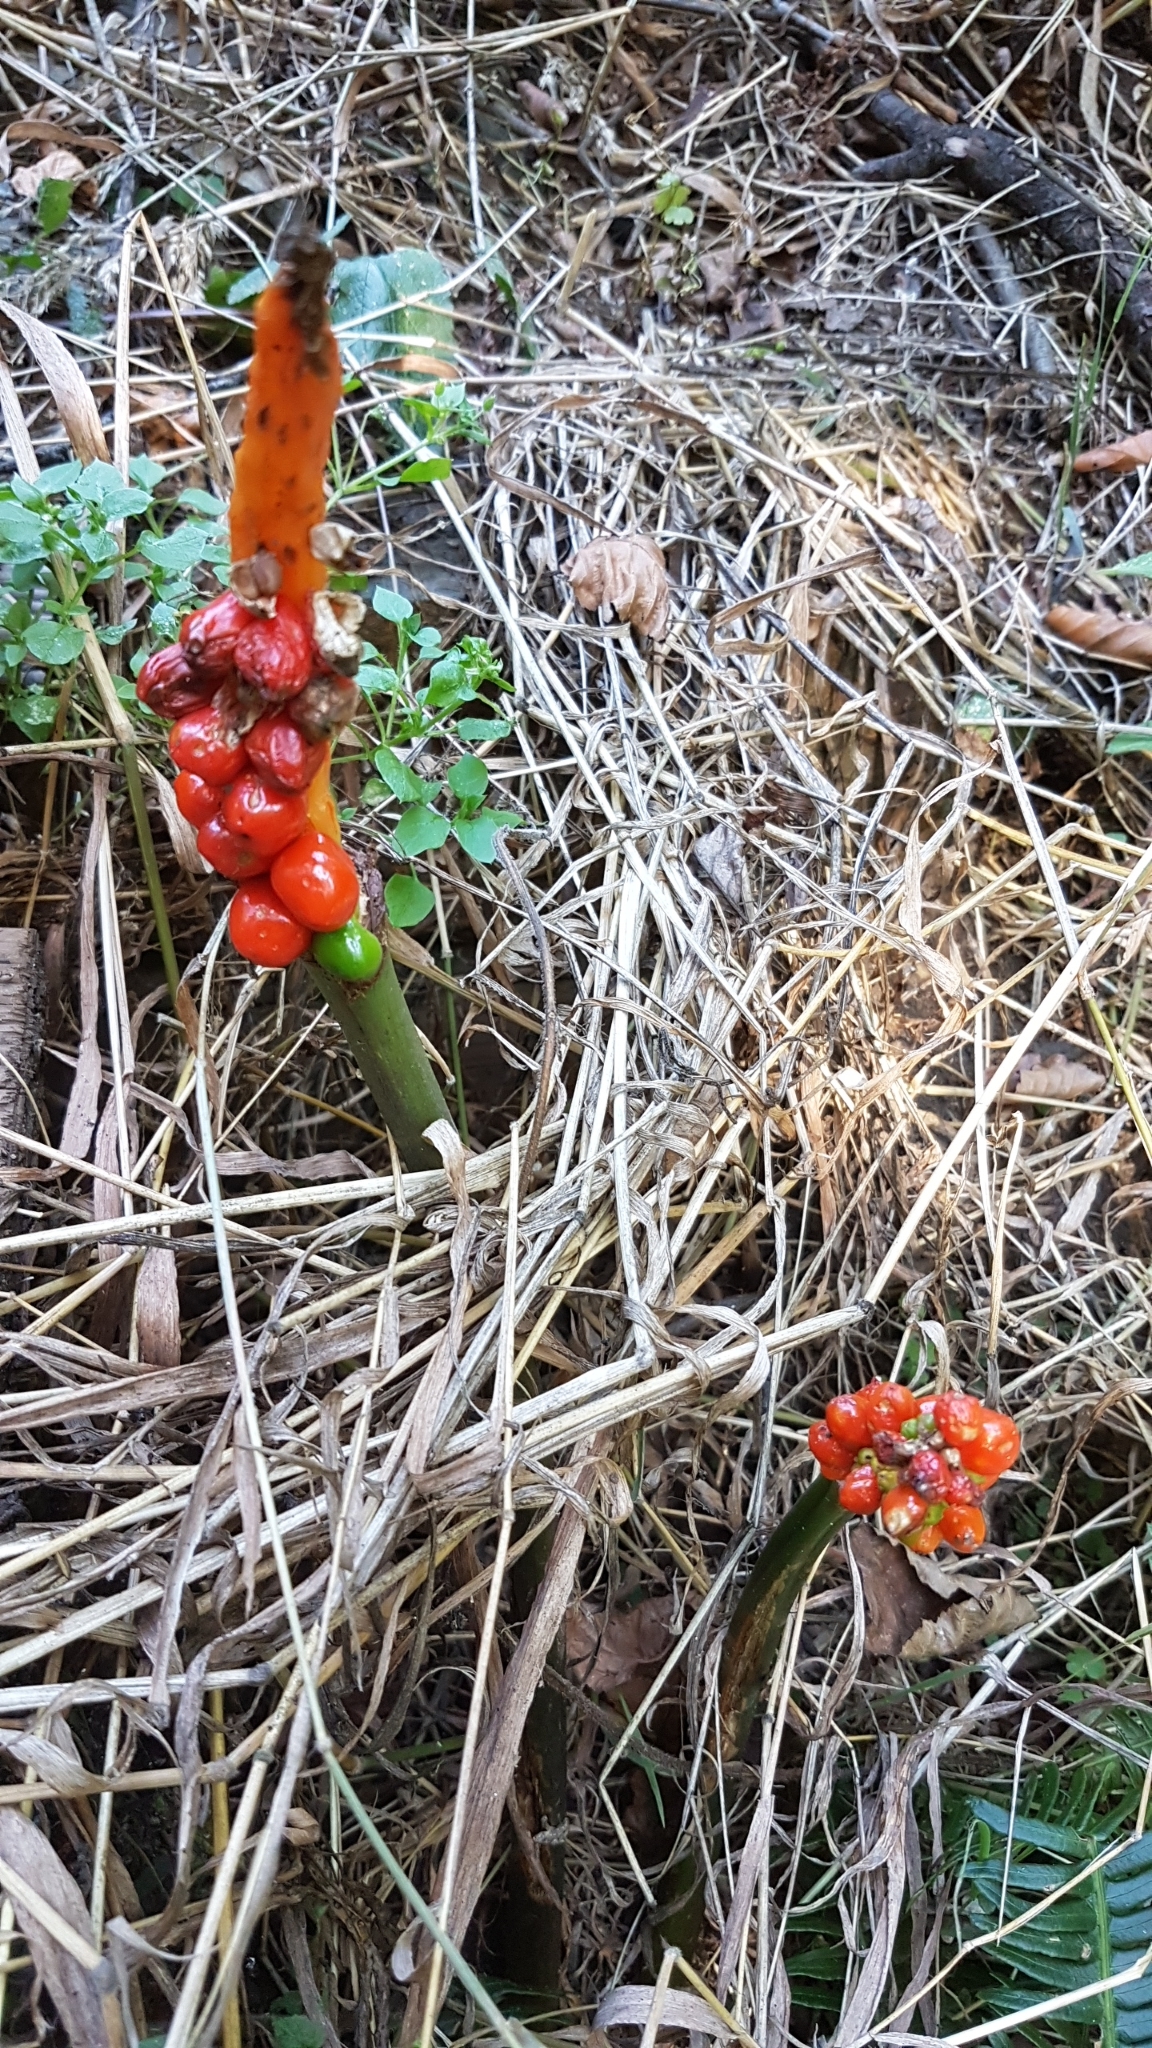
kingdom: Plantae
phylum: Tracheophyta
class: Liliopsida
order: Alismatales
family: Araceae
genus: Arum
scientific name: Arum italicum
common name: Italian lords-and-ladies
